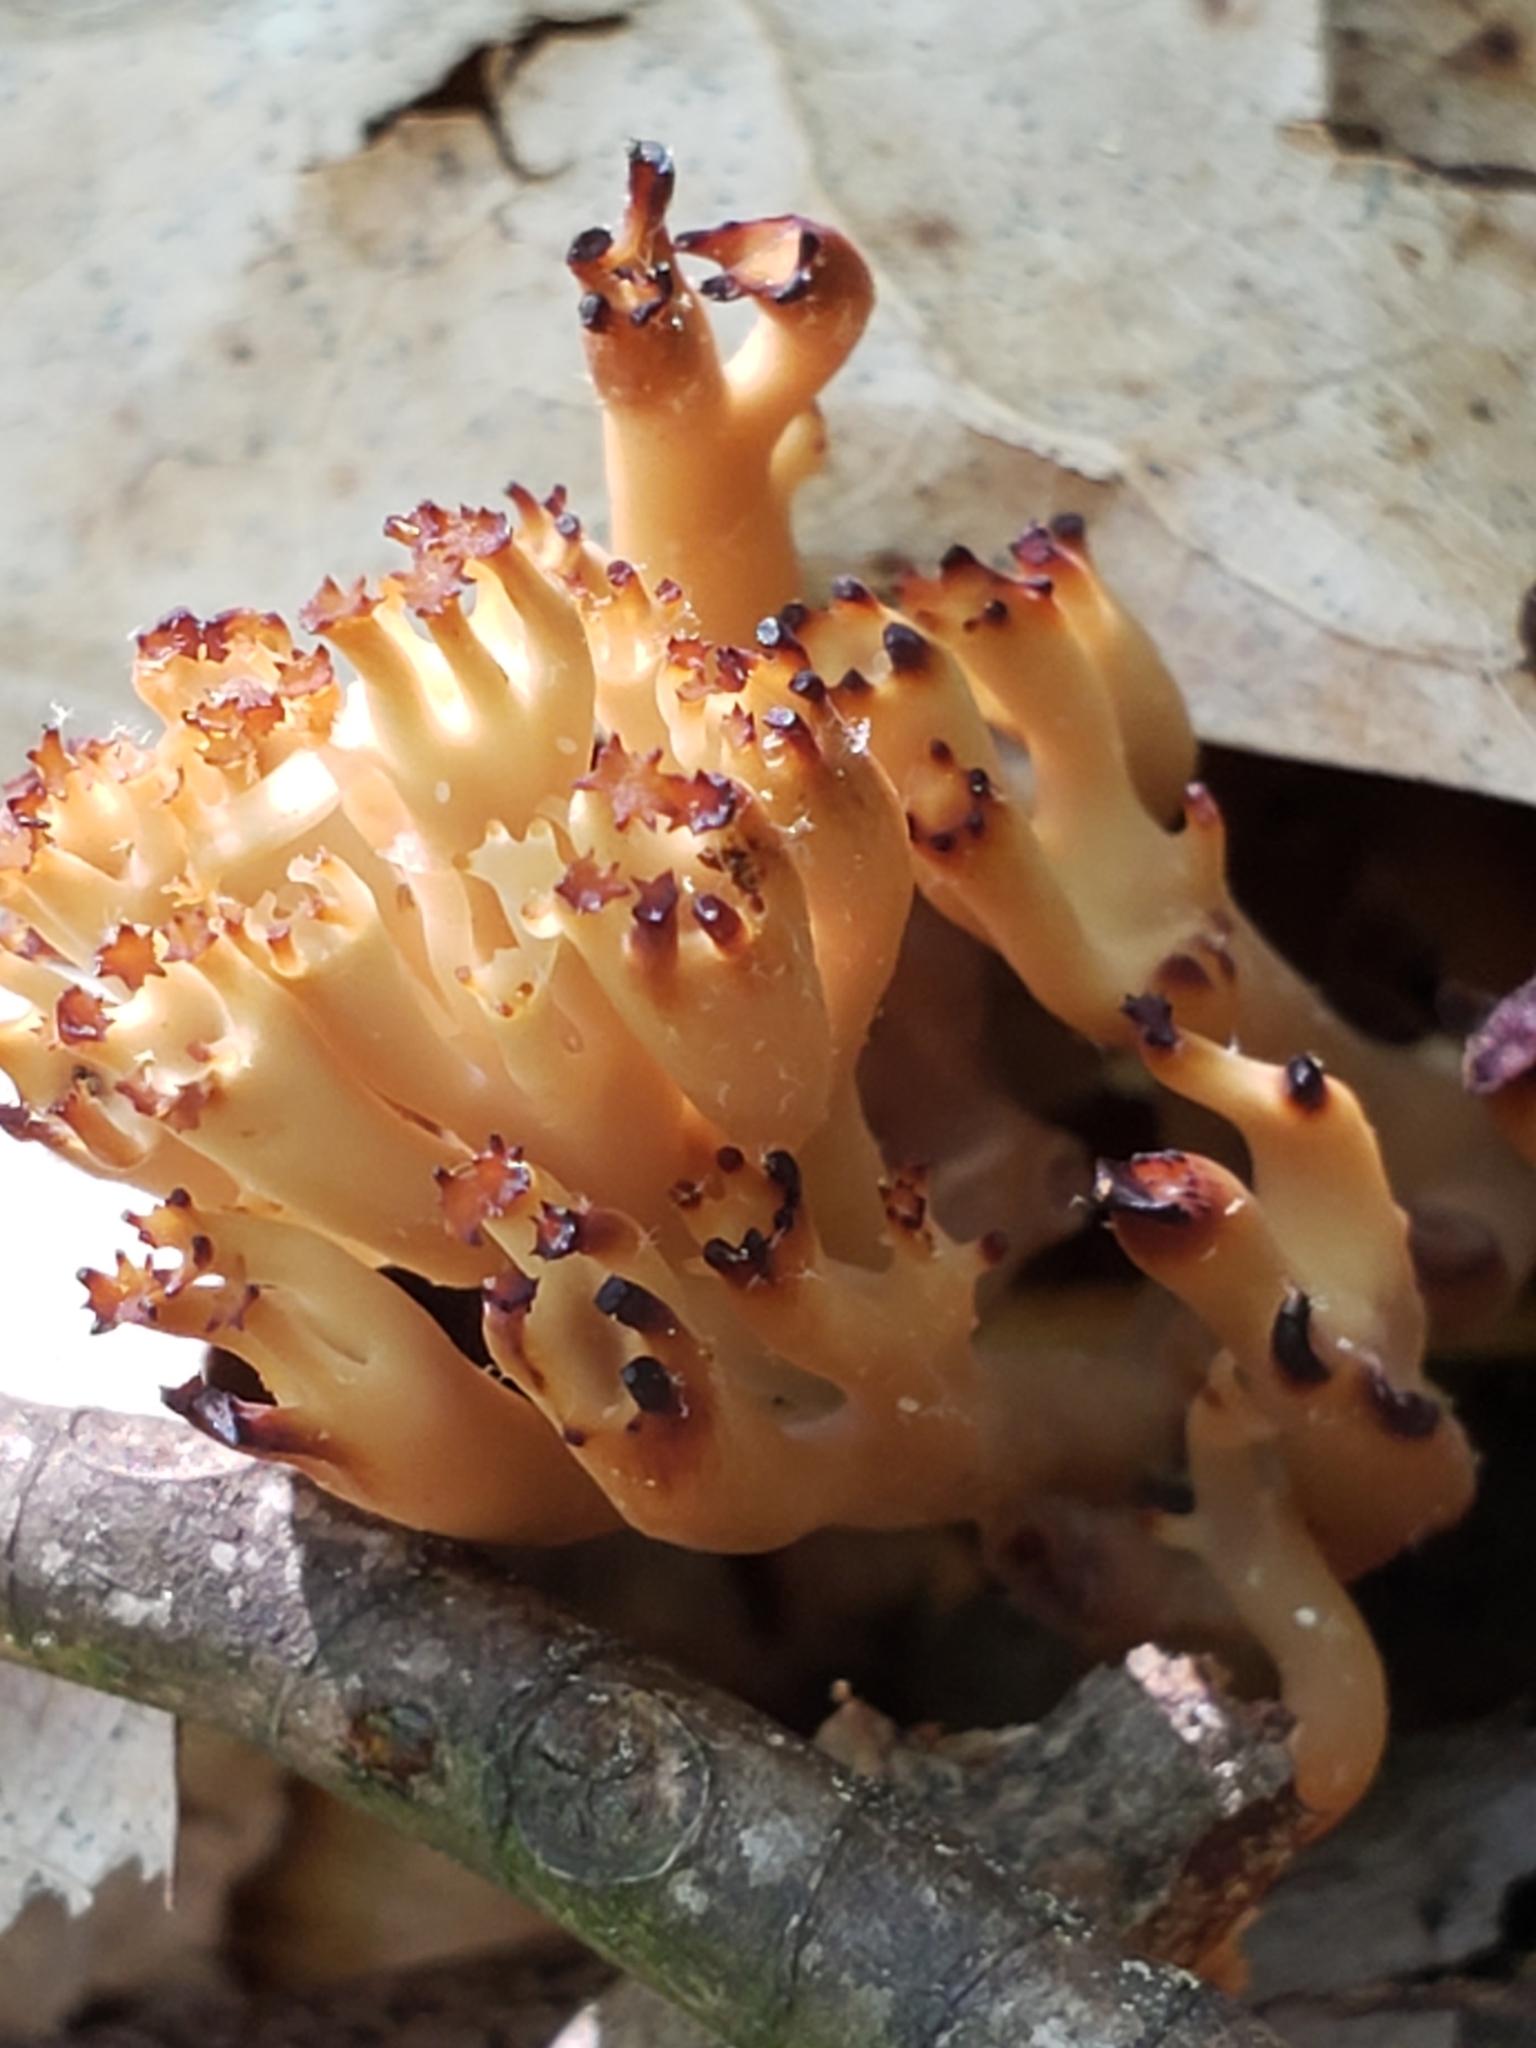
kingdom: Fungi
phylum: Basidiomycota
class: Agaricomycetes
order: Russulales
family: Auriscalpiaceae
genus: Artomyces
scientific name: Artomyces pyxidatus
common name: Crown-tipped coral fungus
